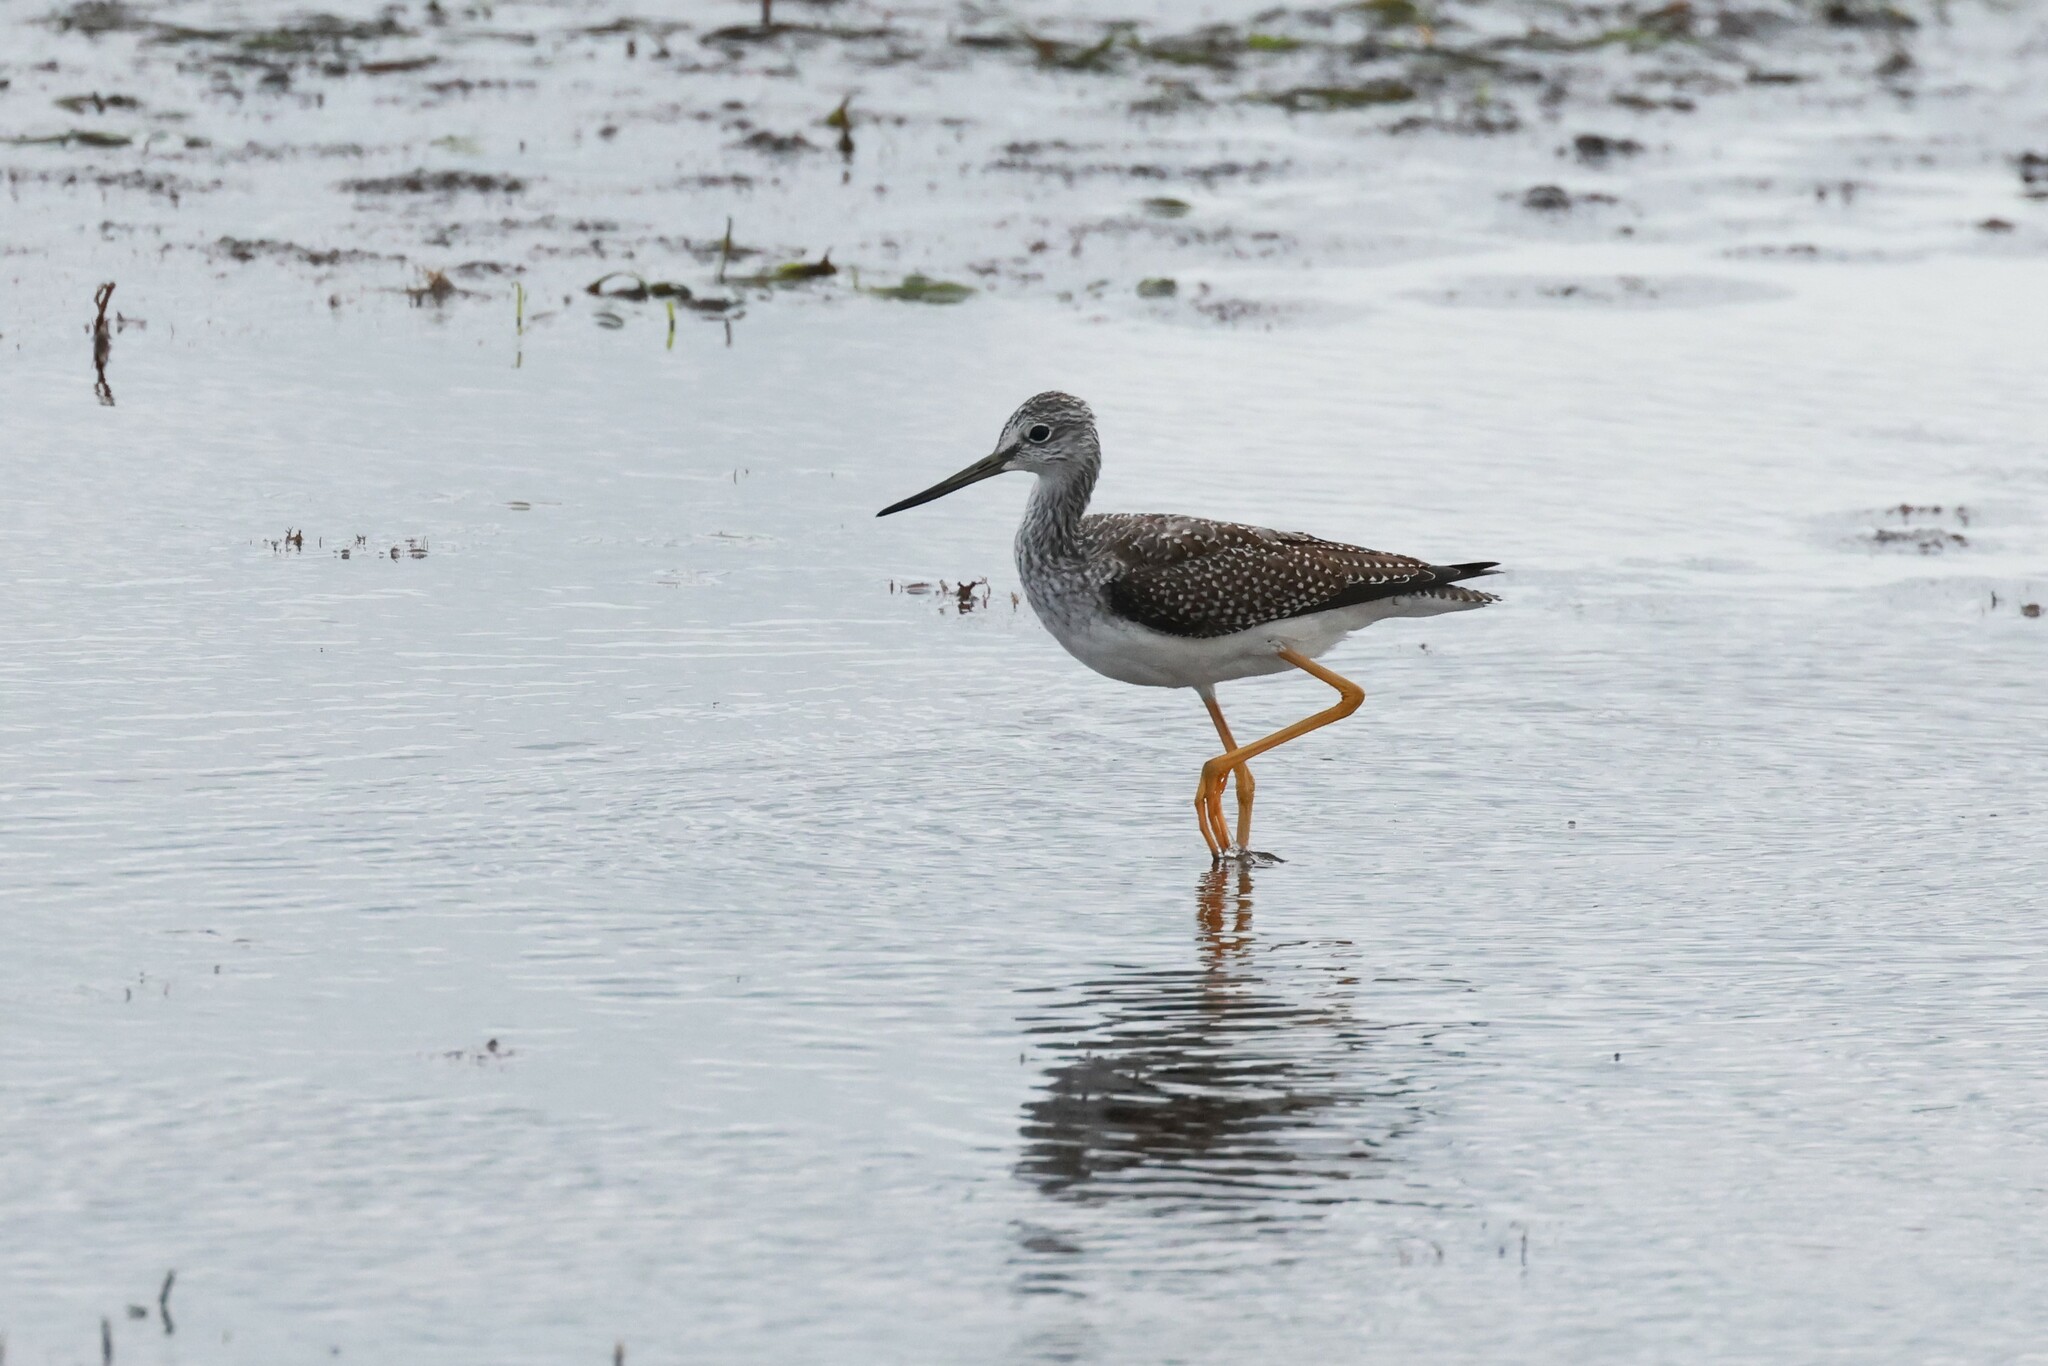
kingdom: Animalia
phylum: Chordata
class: Aves
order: Charadriiformes
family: Scolopacidae
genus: Tringa
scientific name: Tringa melanoleuca
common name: Greater yellowlegs
